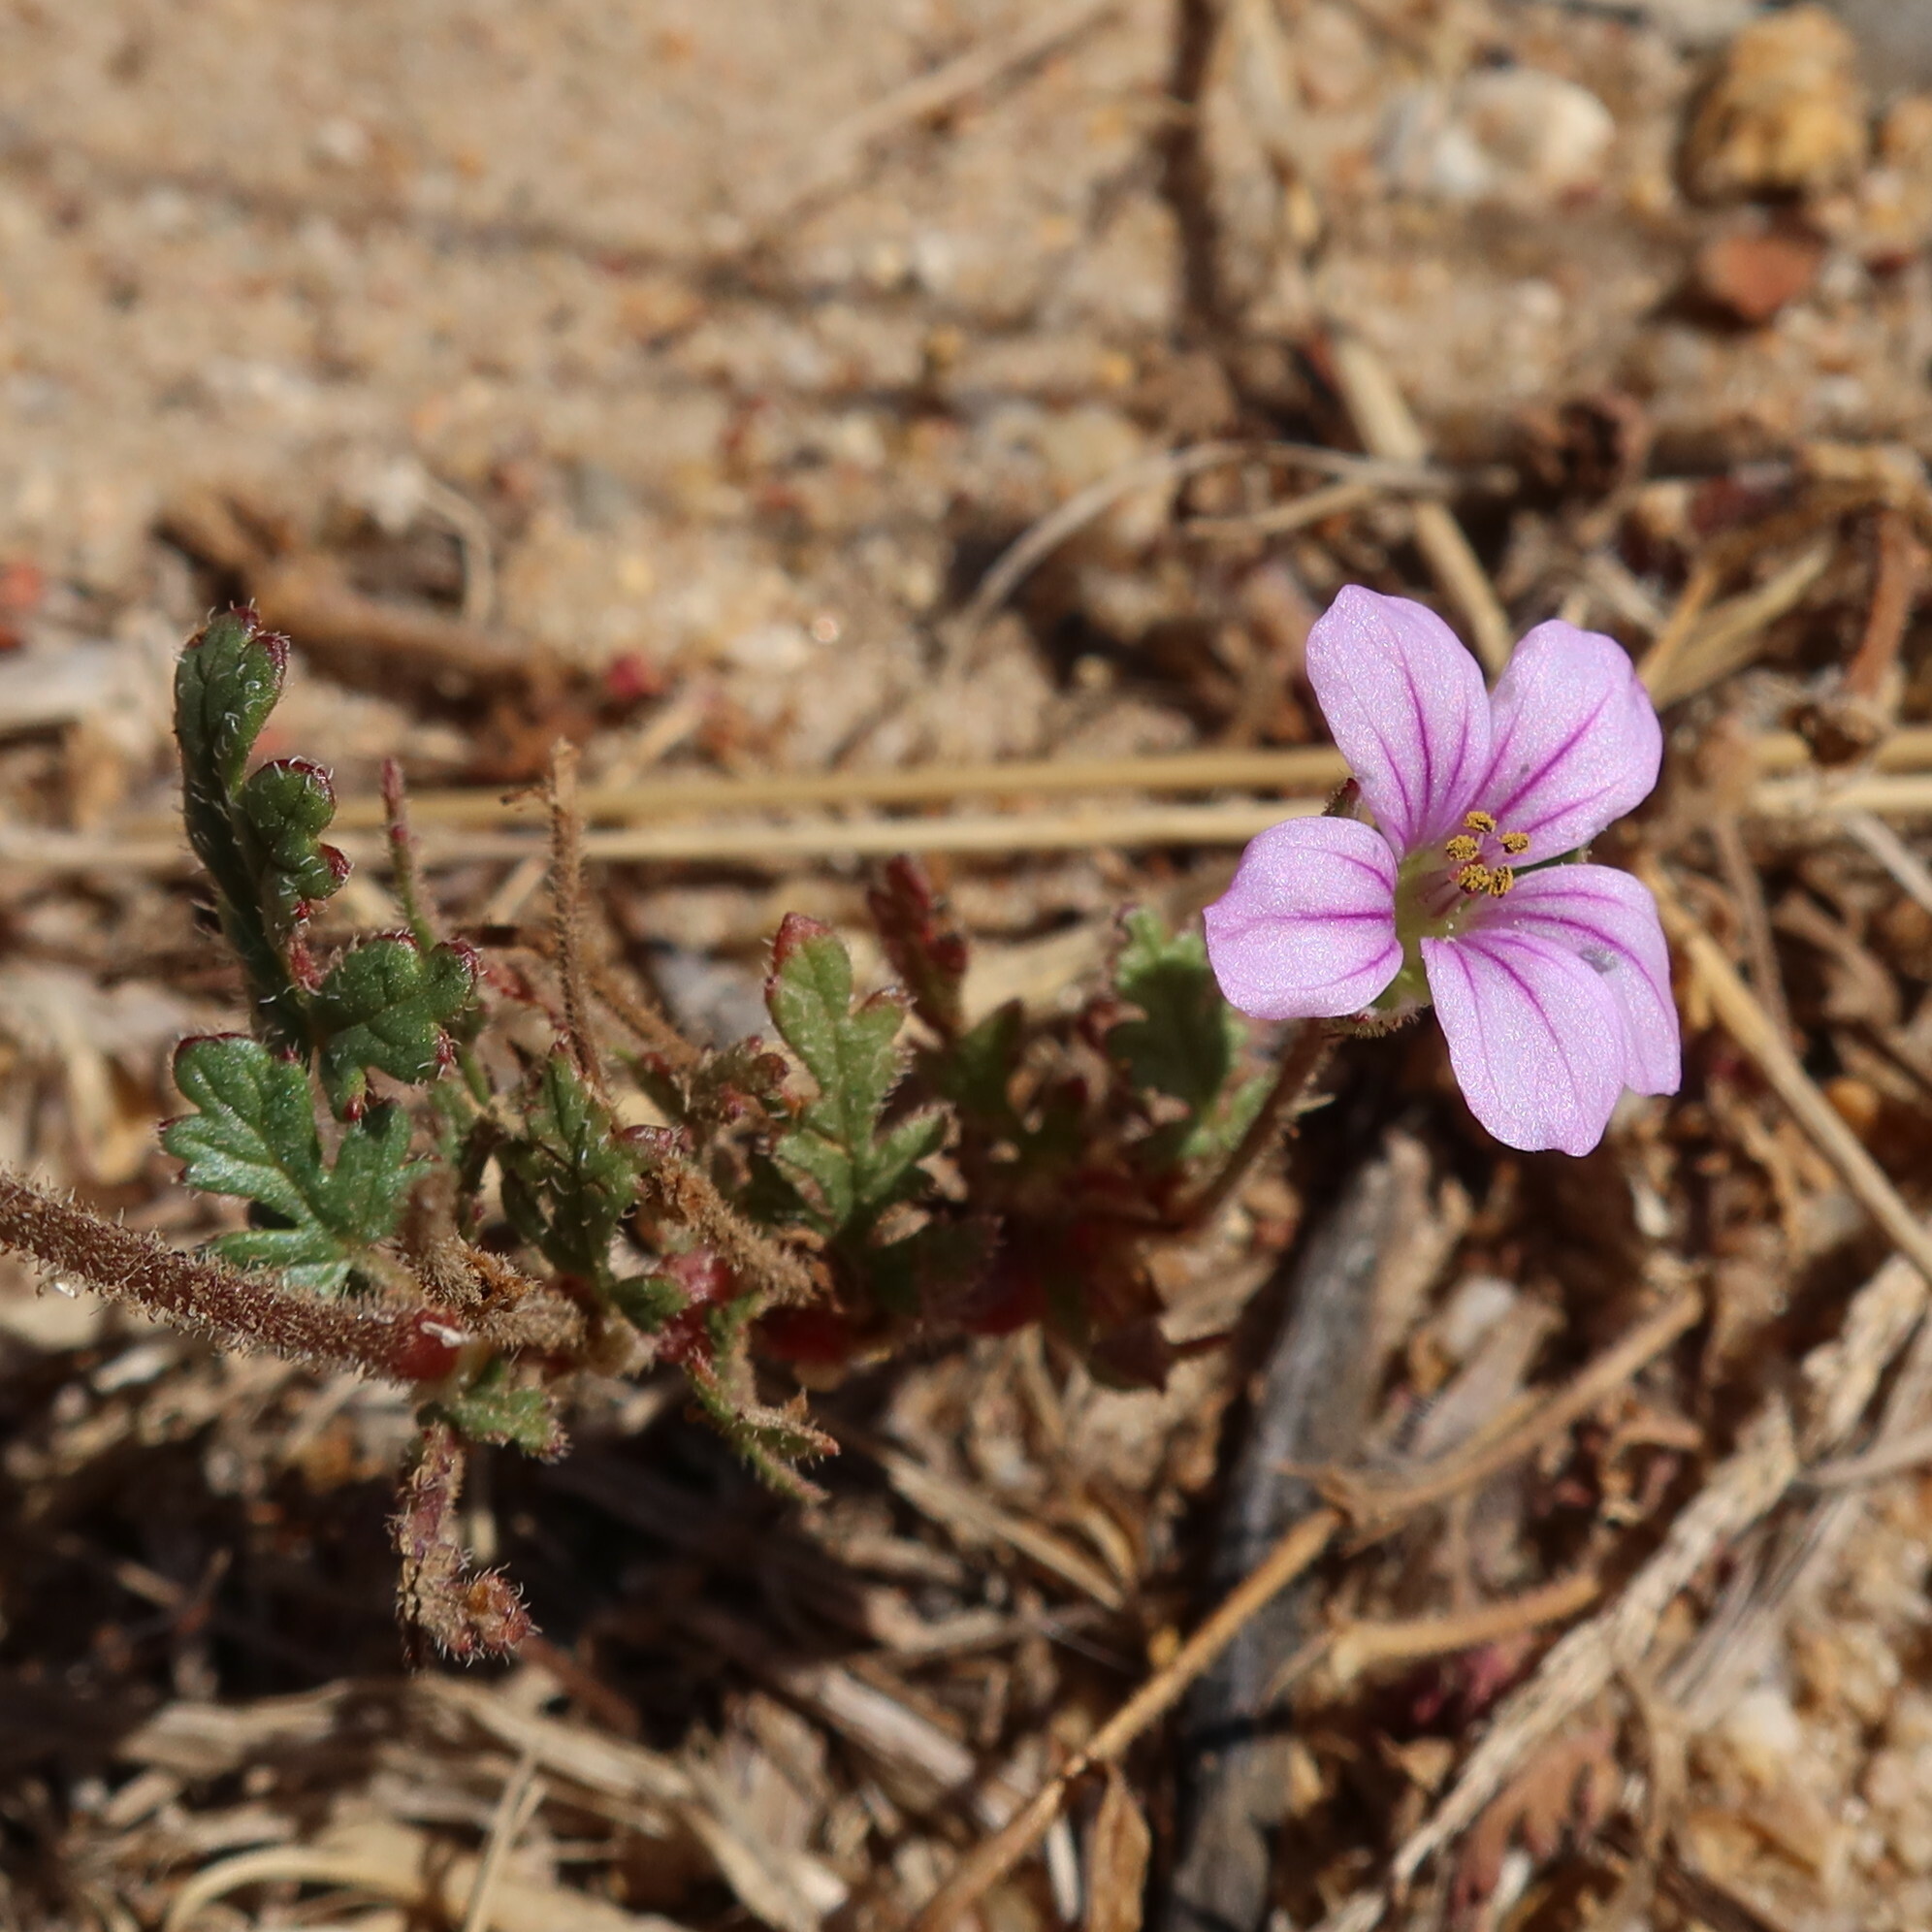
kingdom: Plantae
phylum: Tracheophyta
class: Magnoliopsida
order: Geraniales
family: Geraniaceae
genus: Erodium
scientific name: Erodium botrys
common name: Mediterranean stork's-bill
